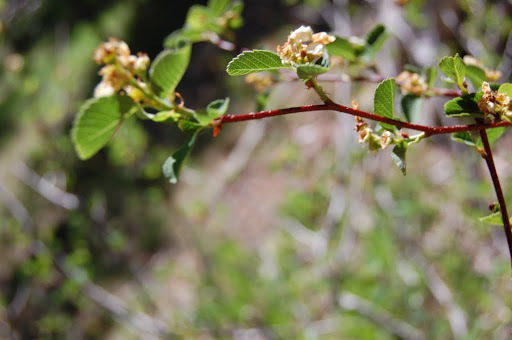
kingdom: Plantae
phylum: Tracheophyta
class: Magnoliopsida
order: Rosales
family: Rosaceae
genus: Amelanchier
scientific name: Amelanchier
